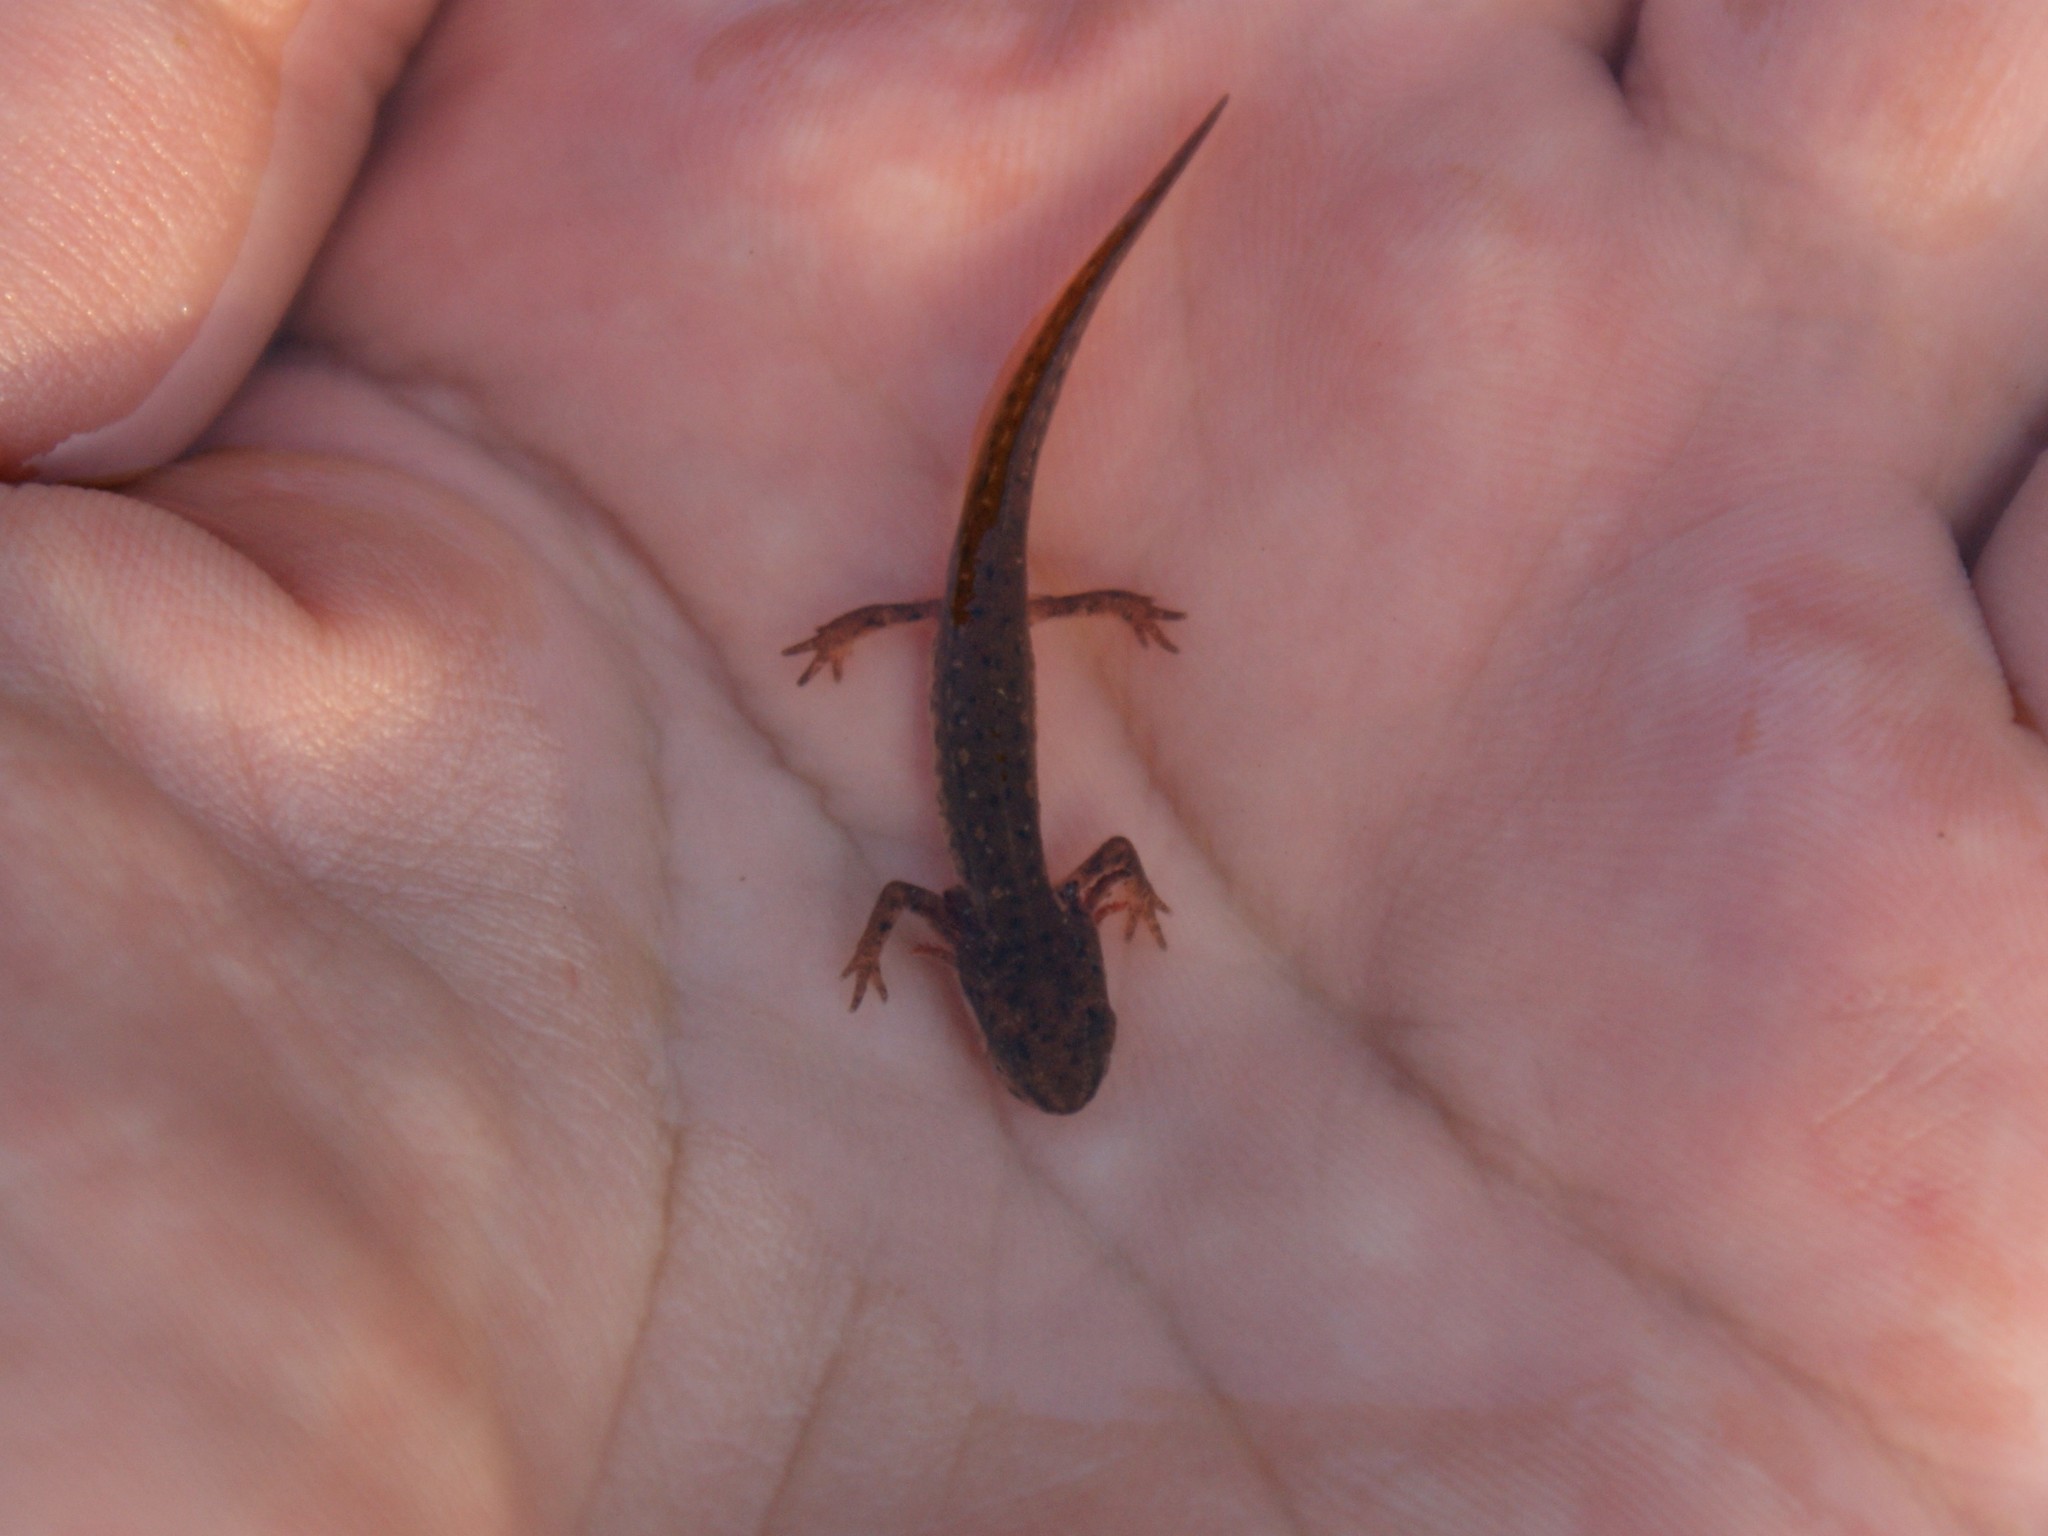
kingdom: Animalia
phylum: Chordata
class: Amphibia
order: Caudata
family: Salamandridae
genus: Notophthalmus
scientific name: Notophthalmus viridescens
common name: Eastern newt
